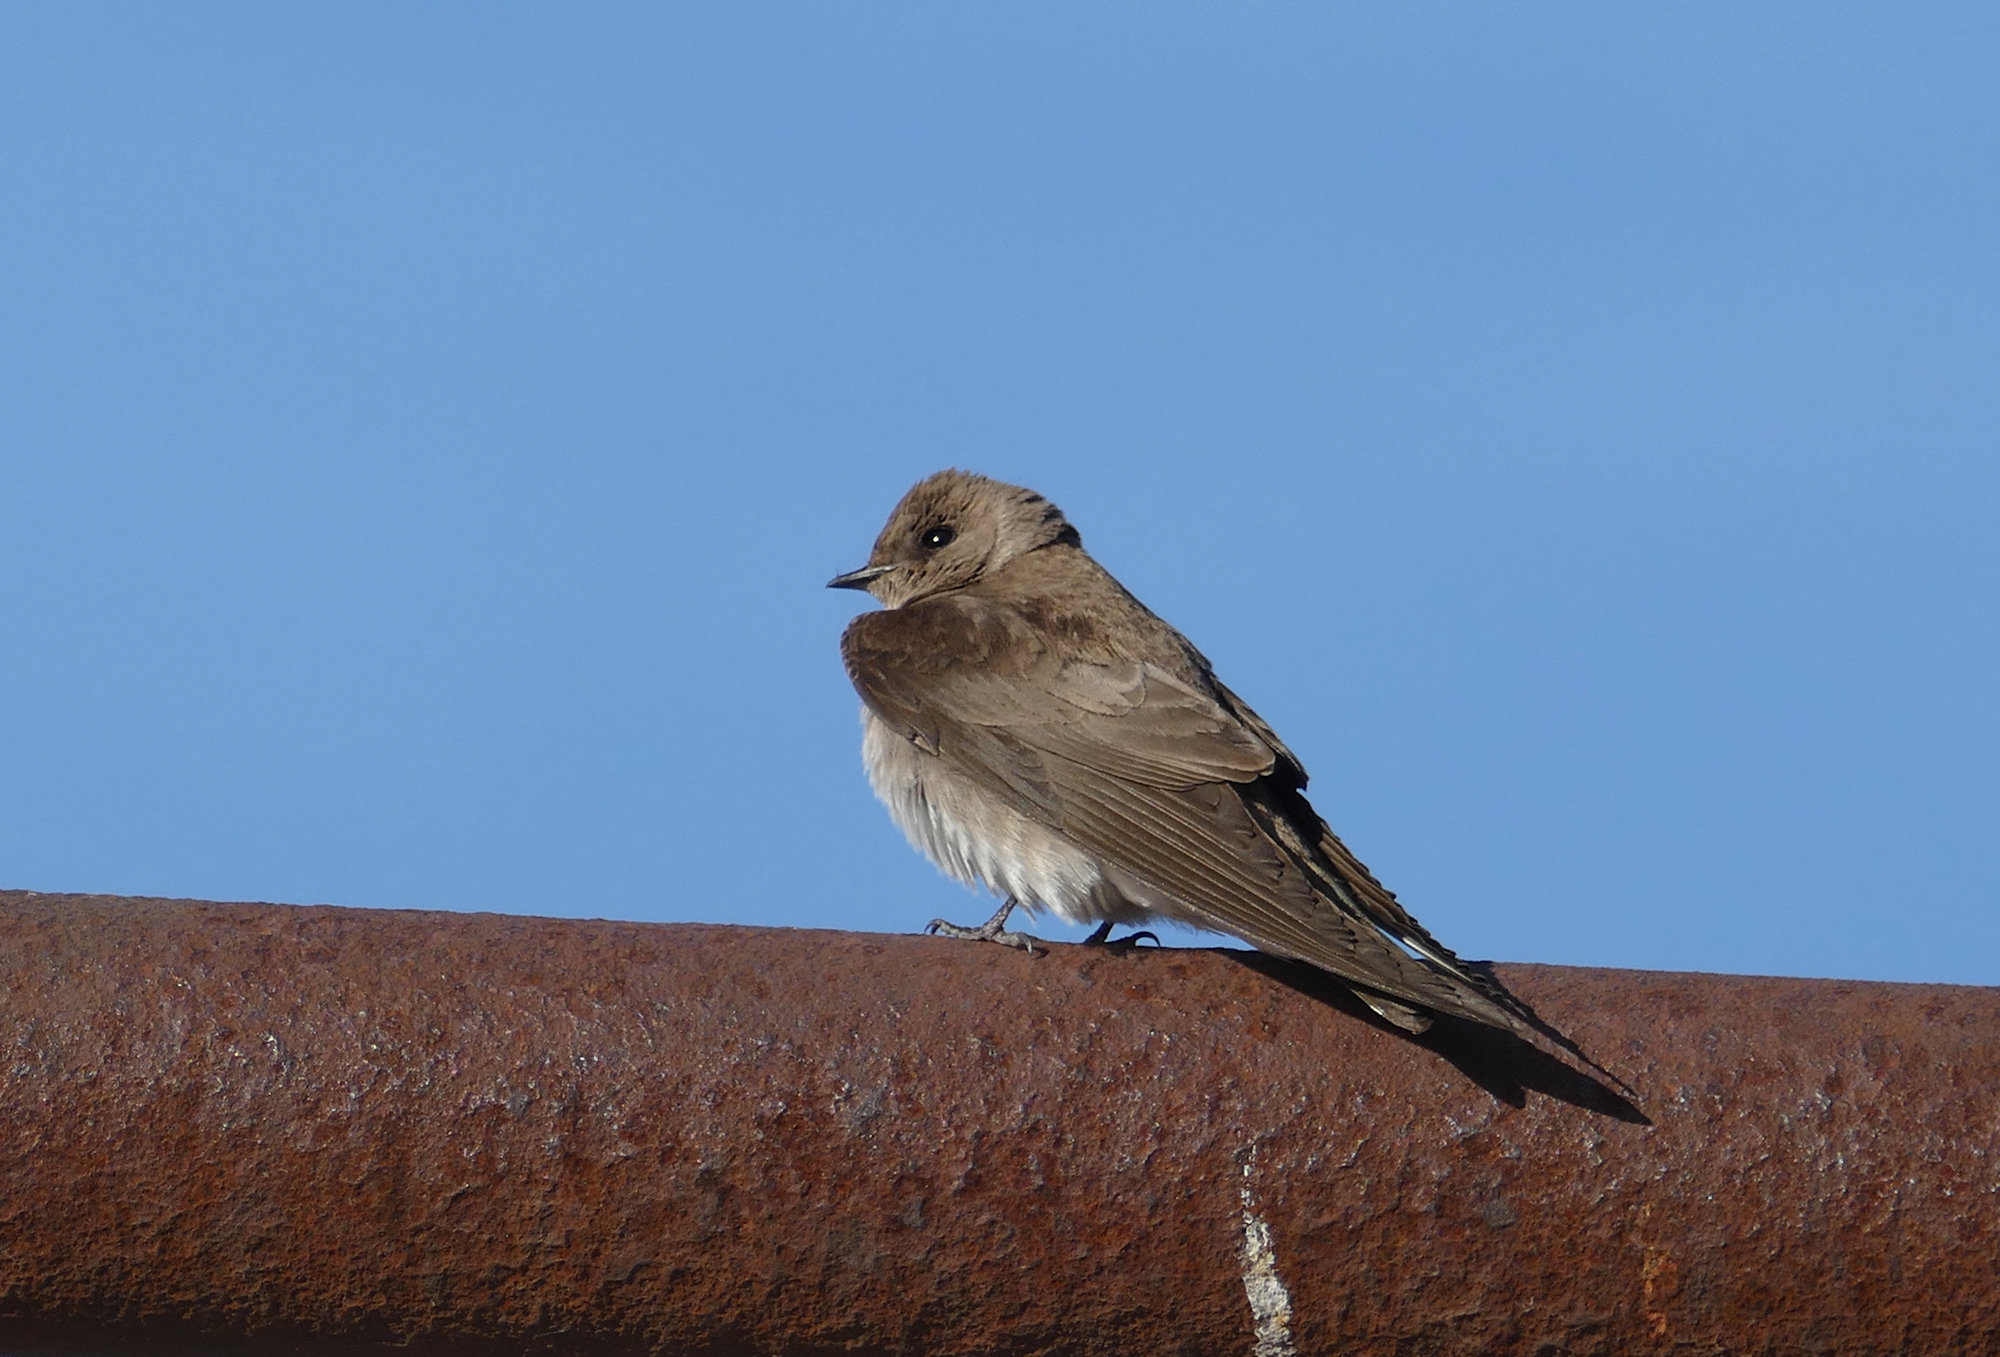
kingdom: Animalia
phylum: Chordata
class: Aves
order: Passeriformes
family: Hirundinidae
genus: Stelgidopteryx
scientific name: Stelgidopteryx serripennis
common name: Northern rough-winged swallow
